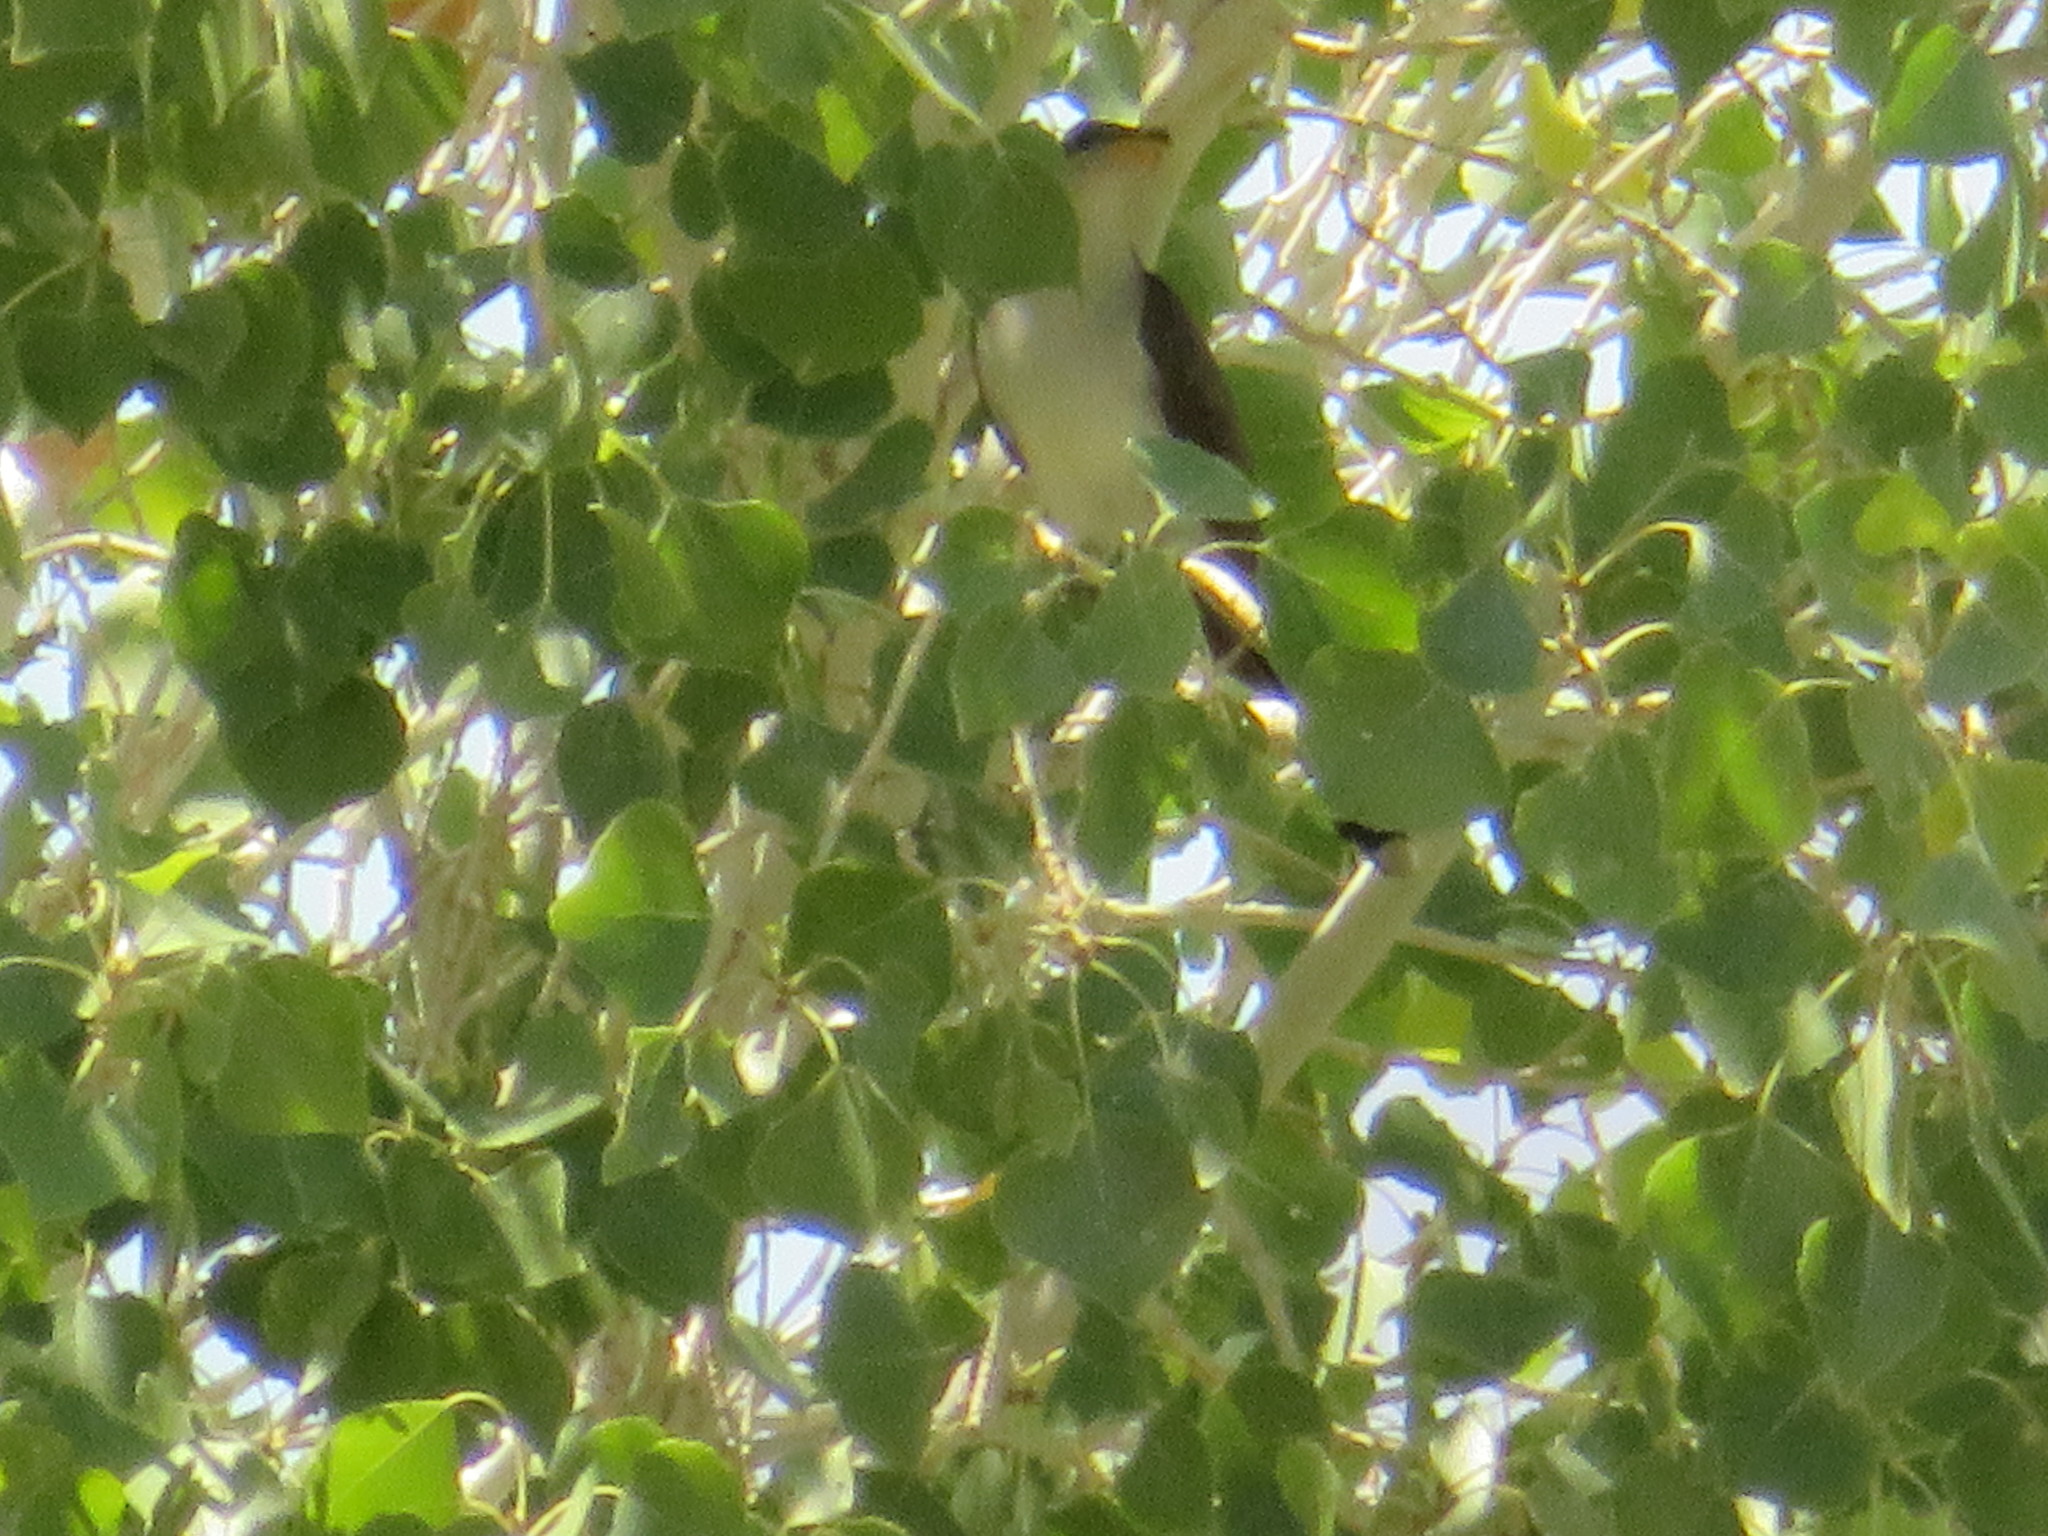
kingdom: Animalia
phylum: Chordata
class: Aves
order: Cuculiformes
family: Cuculidae
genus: Coccyzus
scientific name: Coccyzus americanus
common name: Yellow-billed cuckoo
